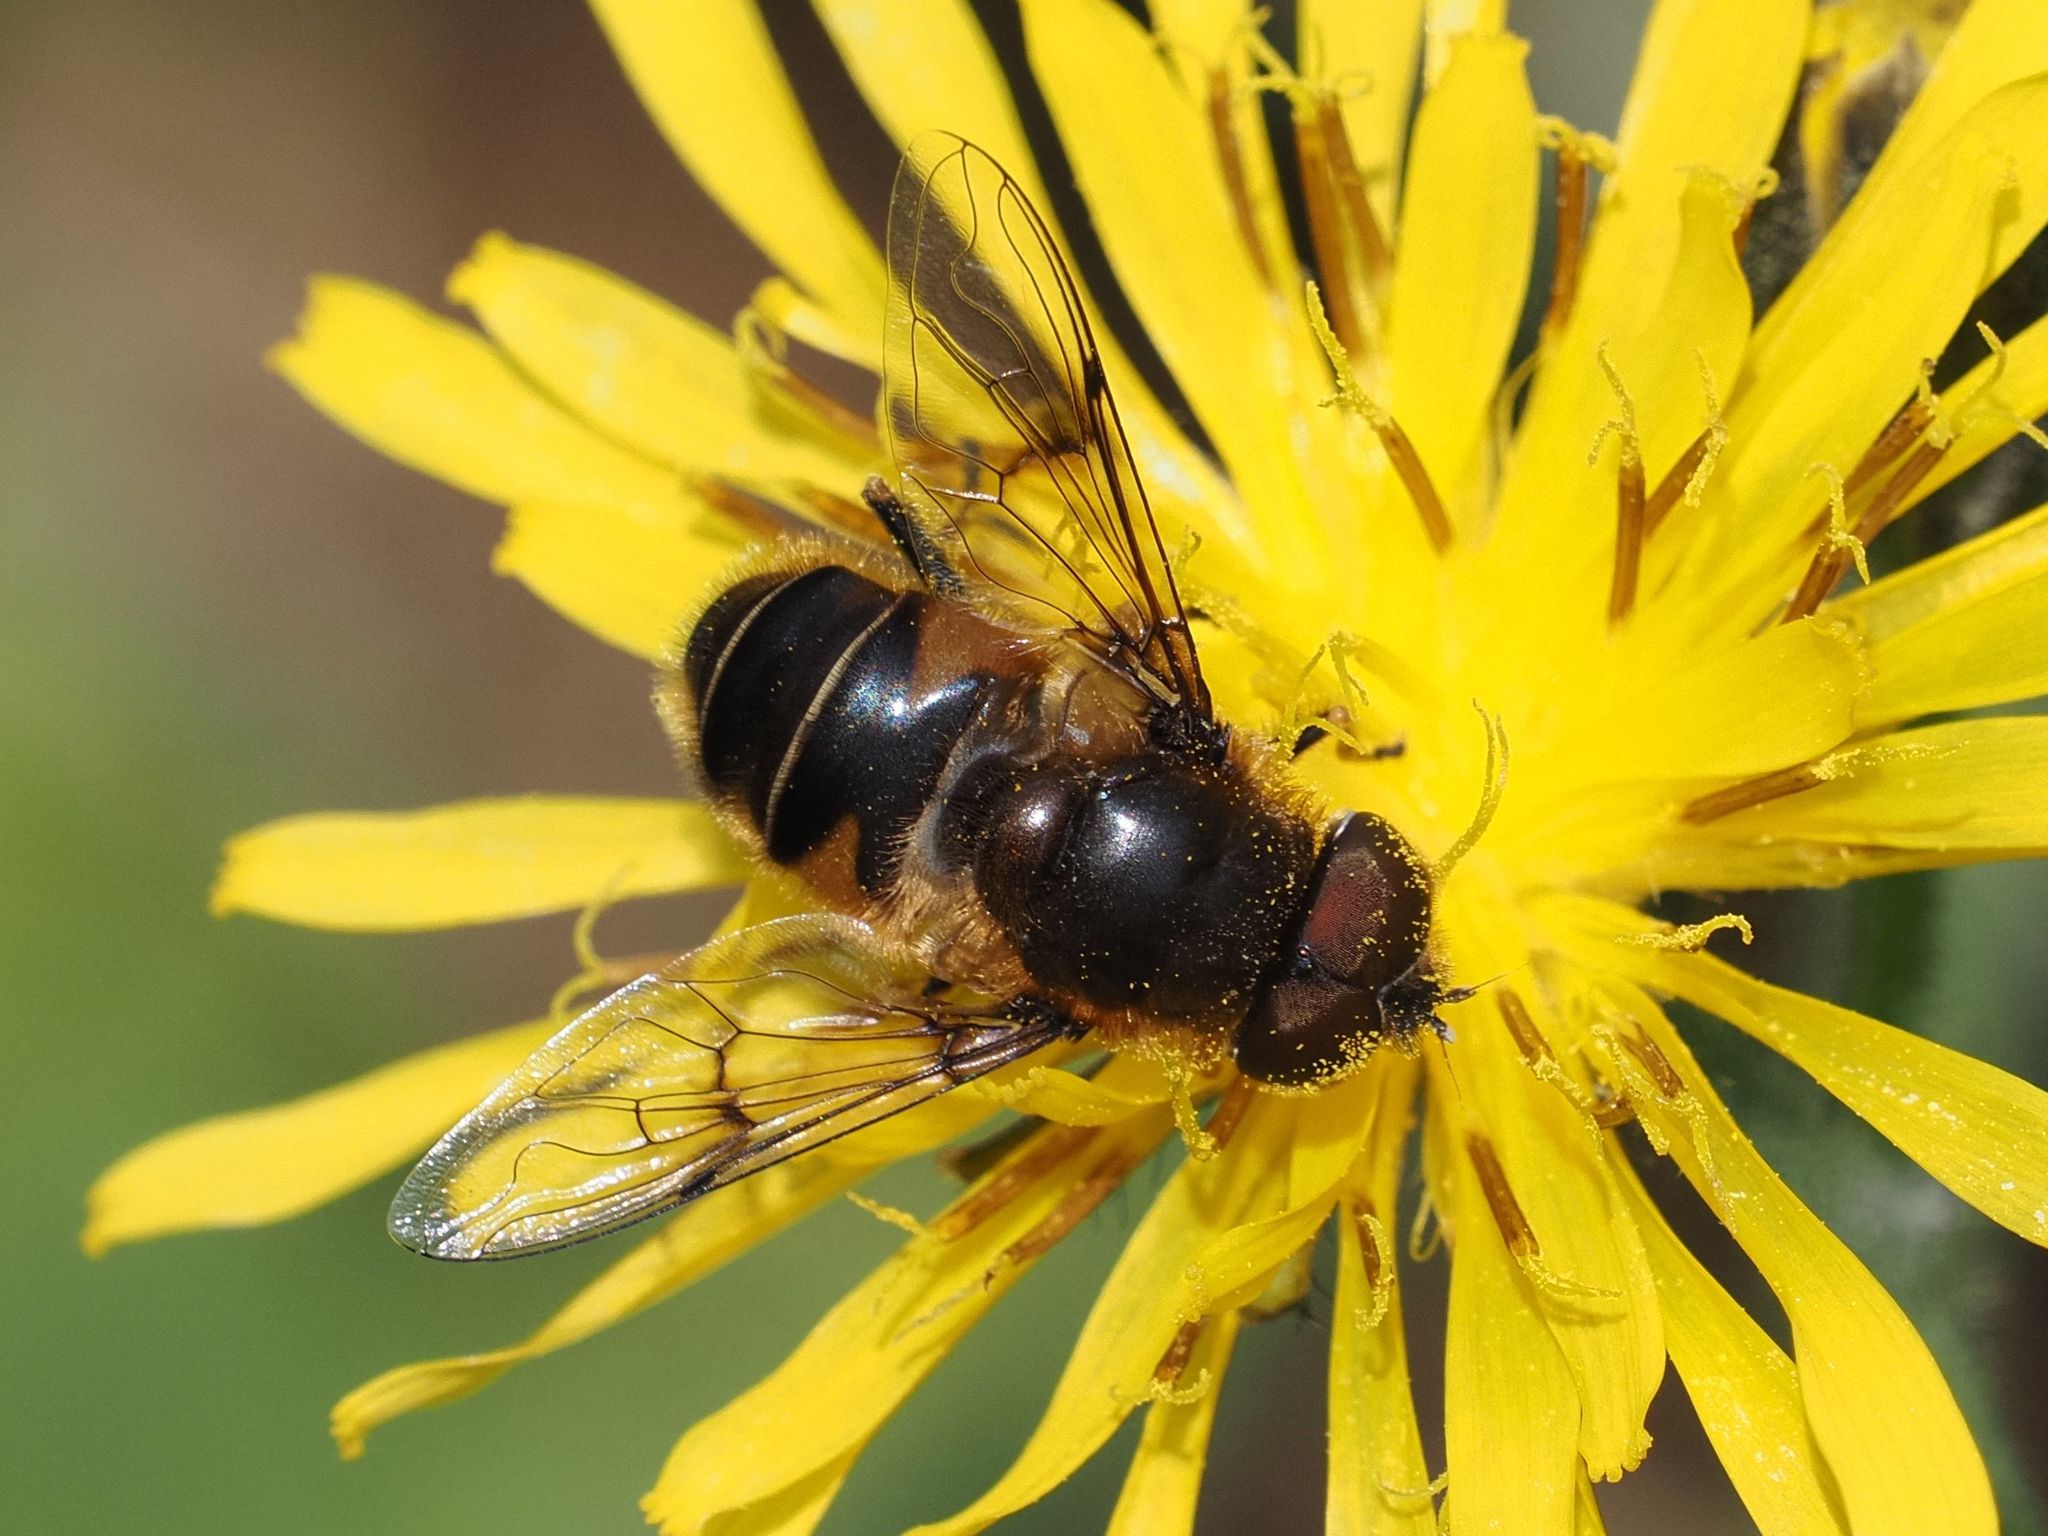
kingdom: Animalia
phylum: Arthropoda
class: Insecta
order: Diptera
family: Syrphidae
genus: Eristalis
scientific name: Eristalis rupium
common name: Hover fly
